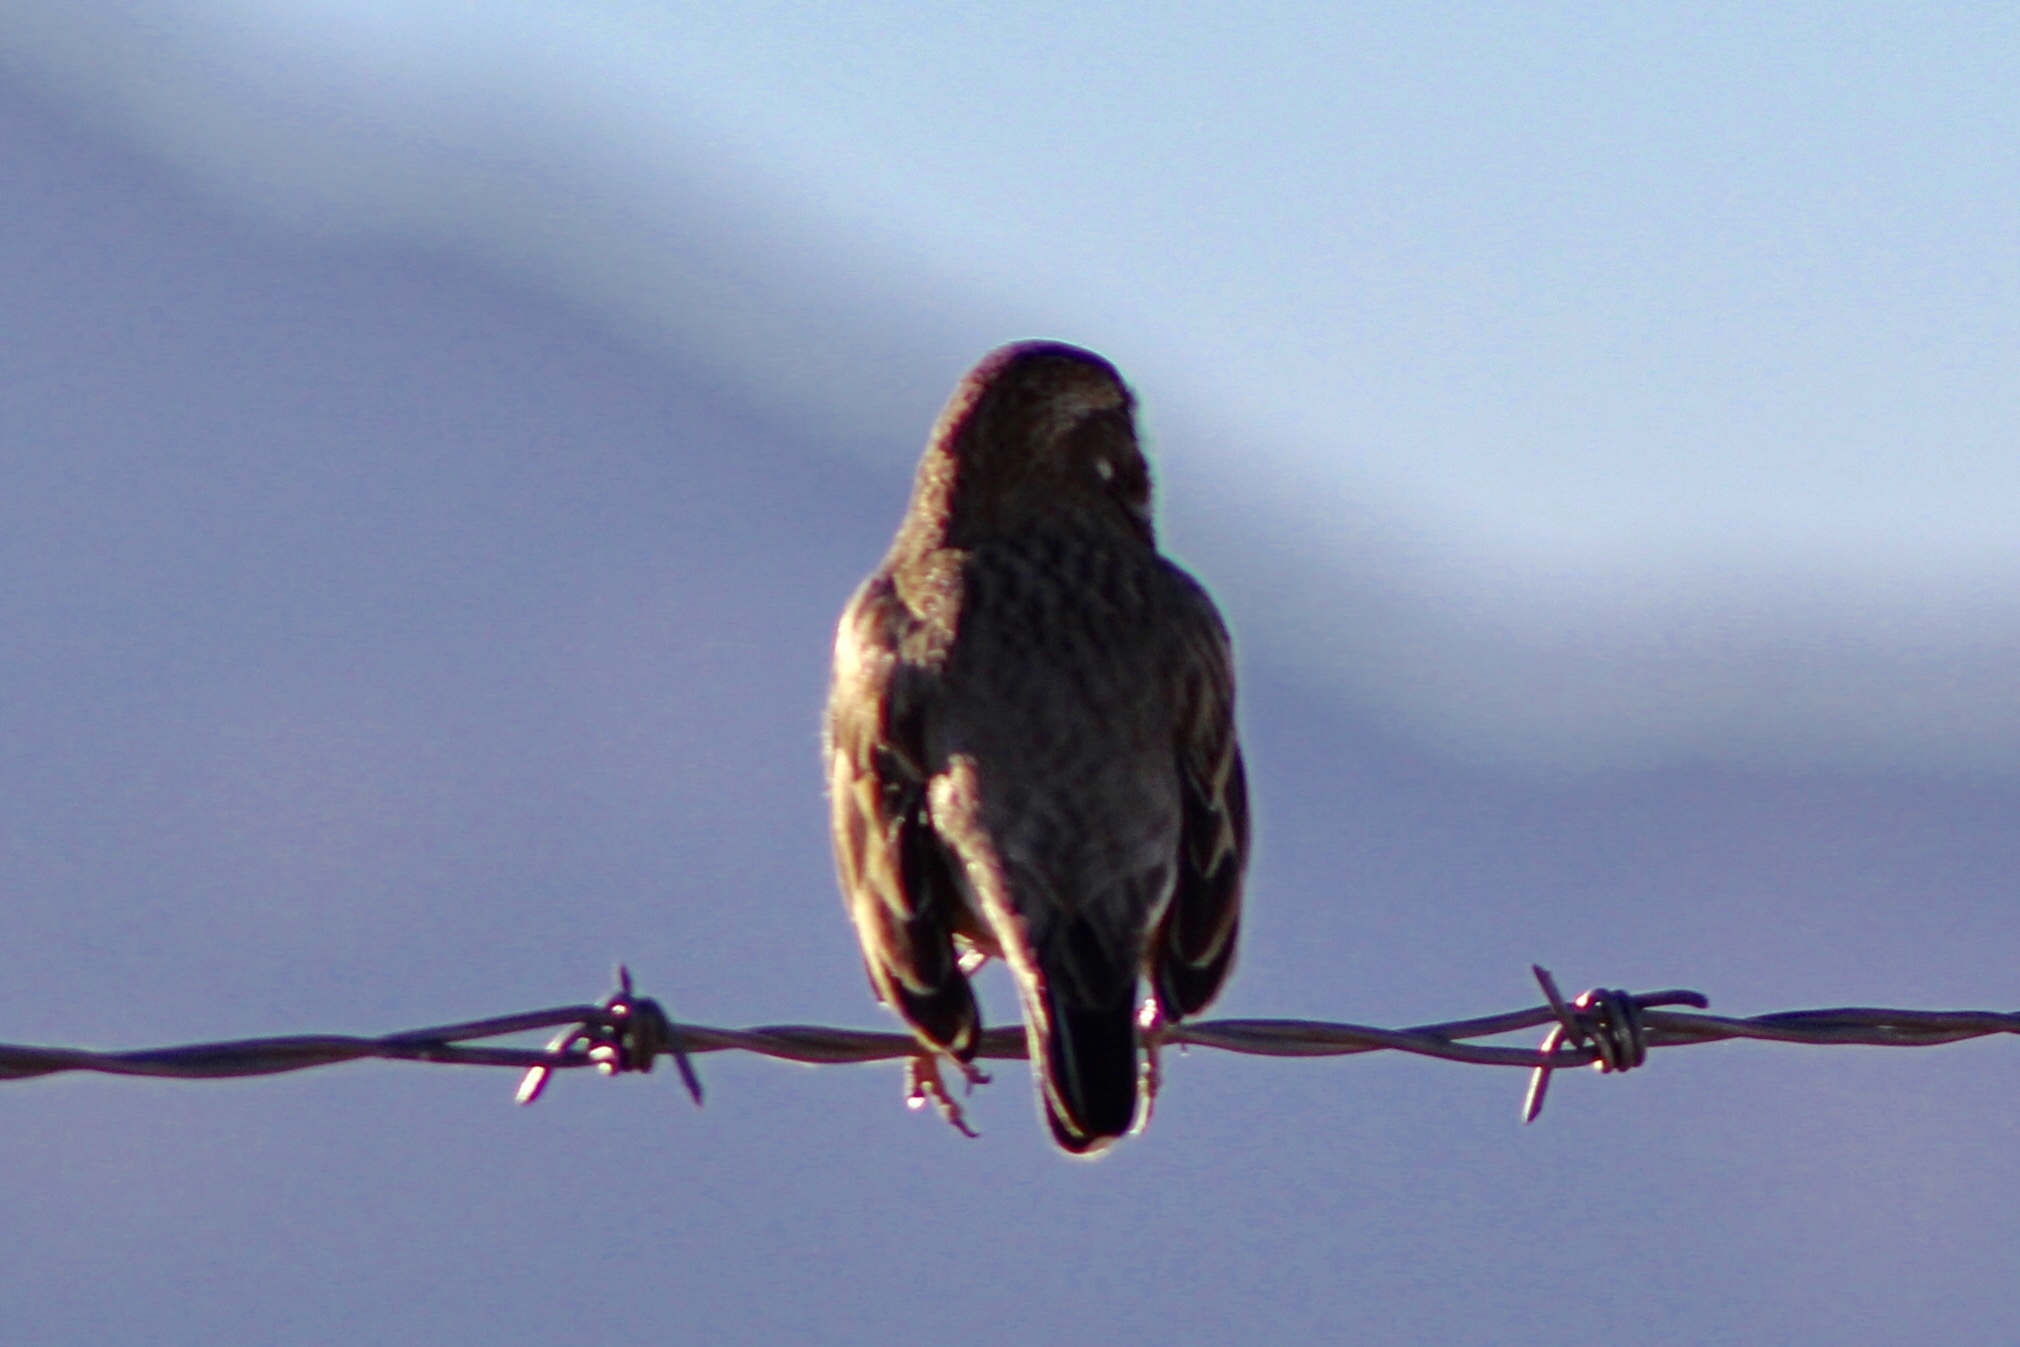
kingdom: Animalia
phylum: Chordata
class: Aves
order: Passeriformes
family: Passerellidae
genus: Calamospiza
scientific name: Calamospiza melanocorys
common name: Lark bunting
